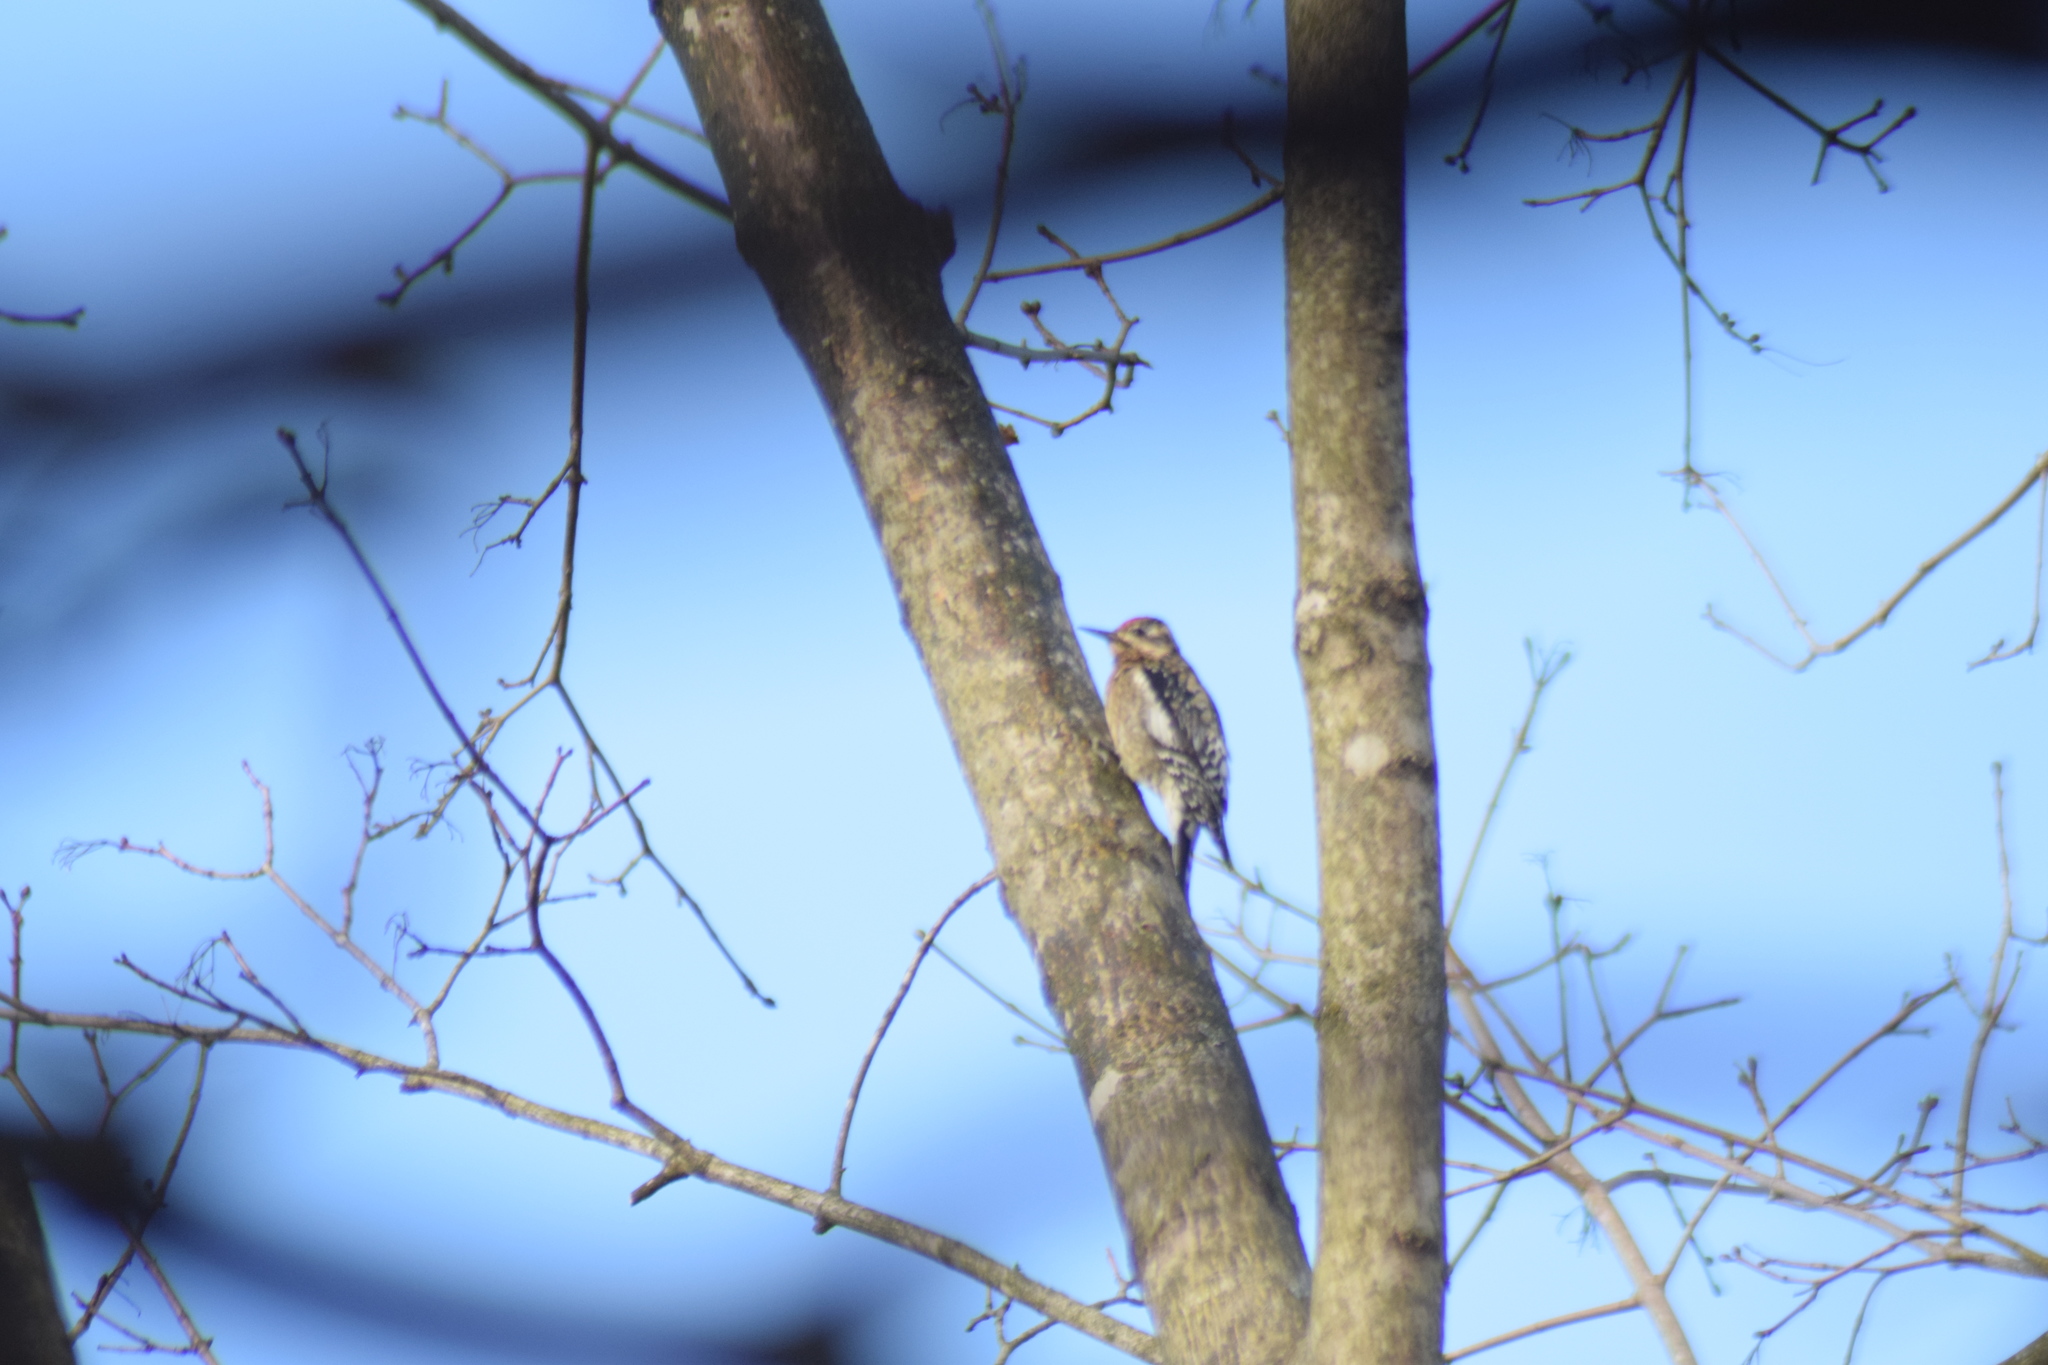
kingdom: Animalia
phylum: Chordata
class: Aves
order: Piciformes
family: Picidae
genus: Sphyrapicus
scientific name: Sphyrapicus varius
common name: Yellow-bellied sapsucker
